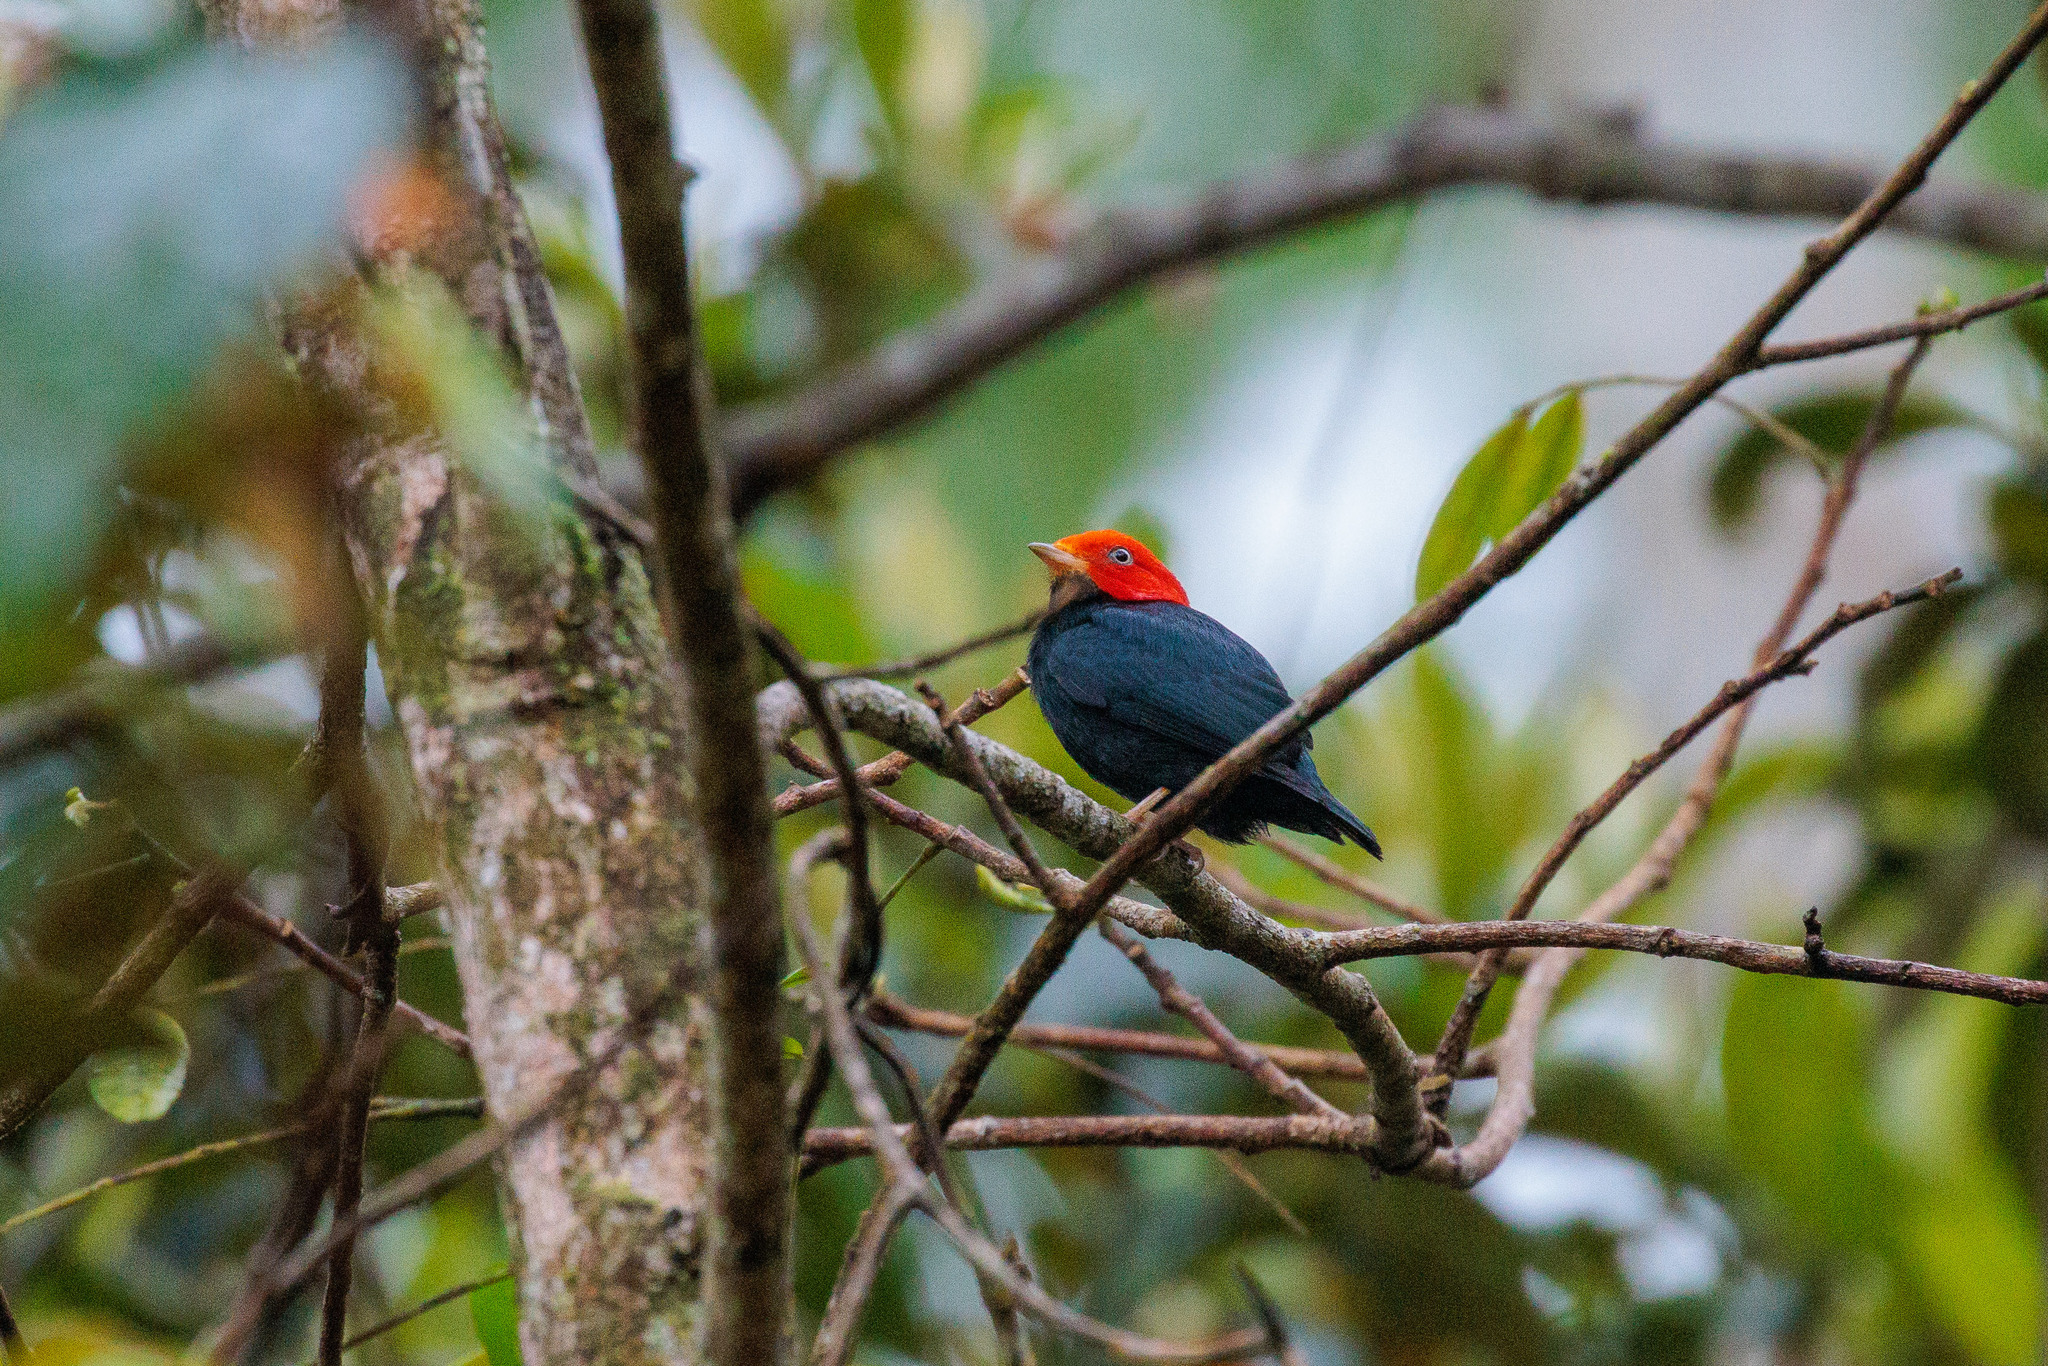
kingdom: Animalia
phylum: Chordata
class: Aves
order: Passeriformes
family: Pipridae
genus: Pipra
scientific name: Pipra rubrocapilla
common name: Red-headed manakin
